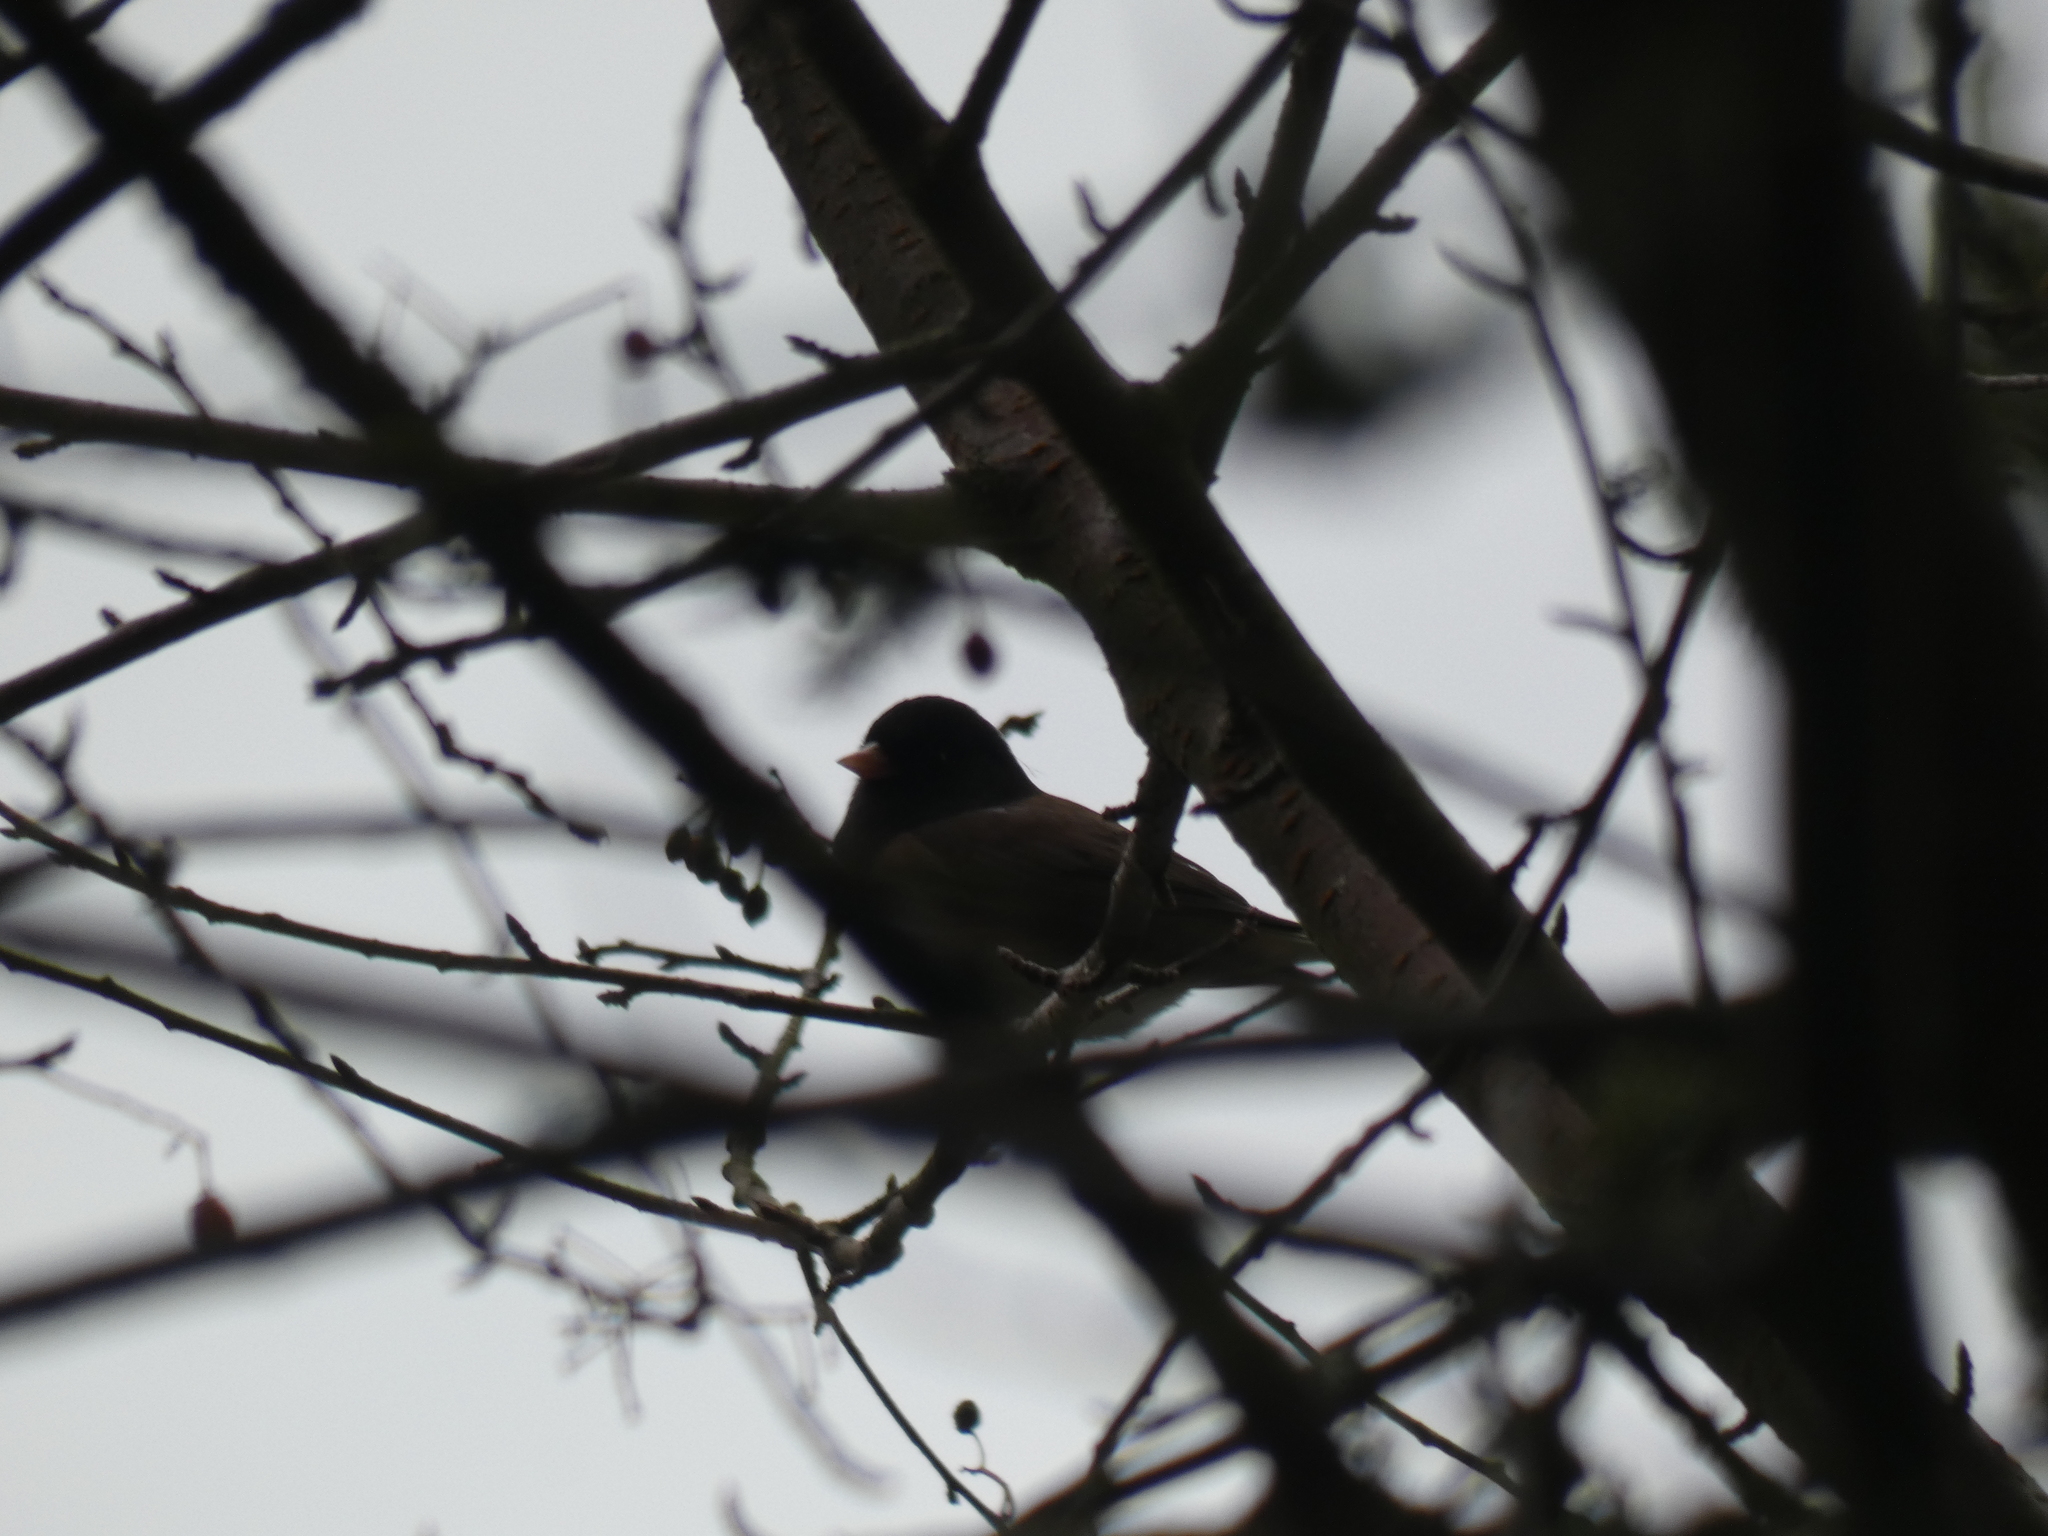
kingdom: Animalia
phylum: Chordata
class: Aves
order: Passeriformes
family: Passerellidae
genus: Junco
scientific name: Junco hyemalis
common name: Dark-eyed junco
